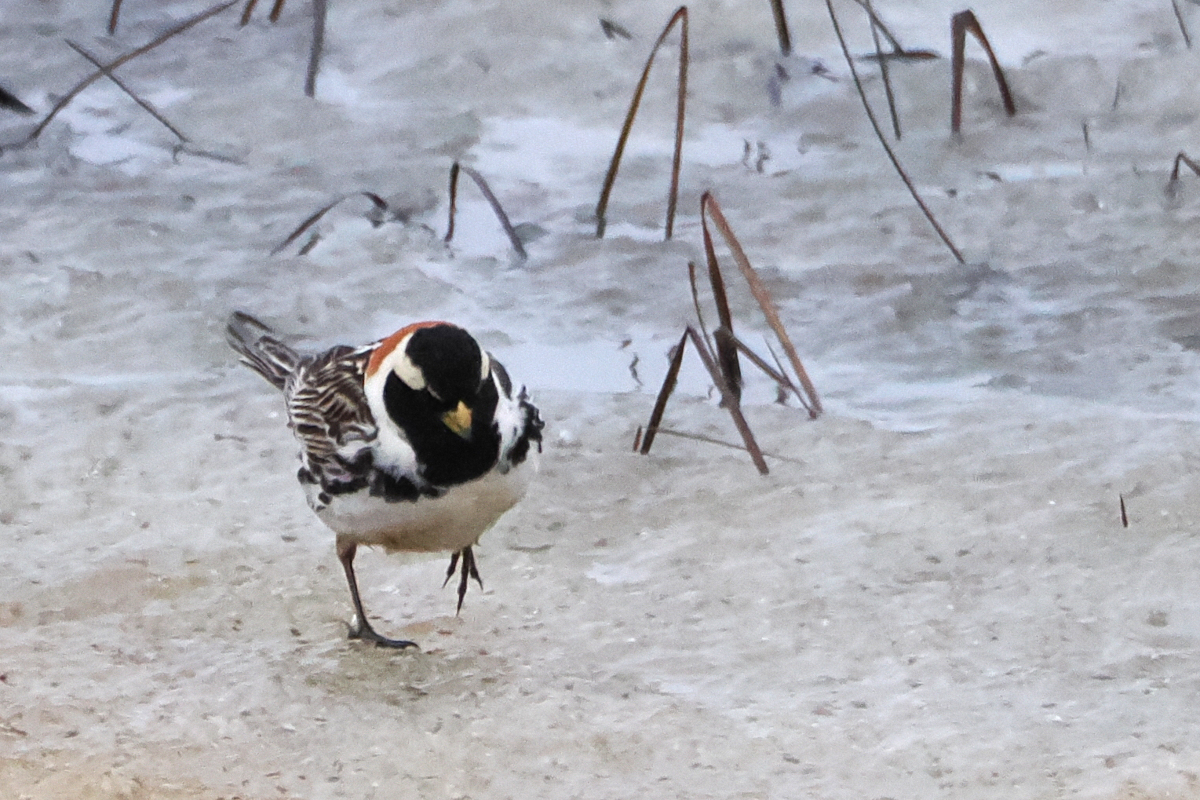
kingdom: Animalia
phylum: Chordata
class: Aves
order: Passeriformes
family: Calcariidae
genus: Calcarius
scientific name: Calcarius lapponicus
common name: Lapland longspur
